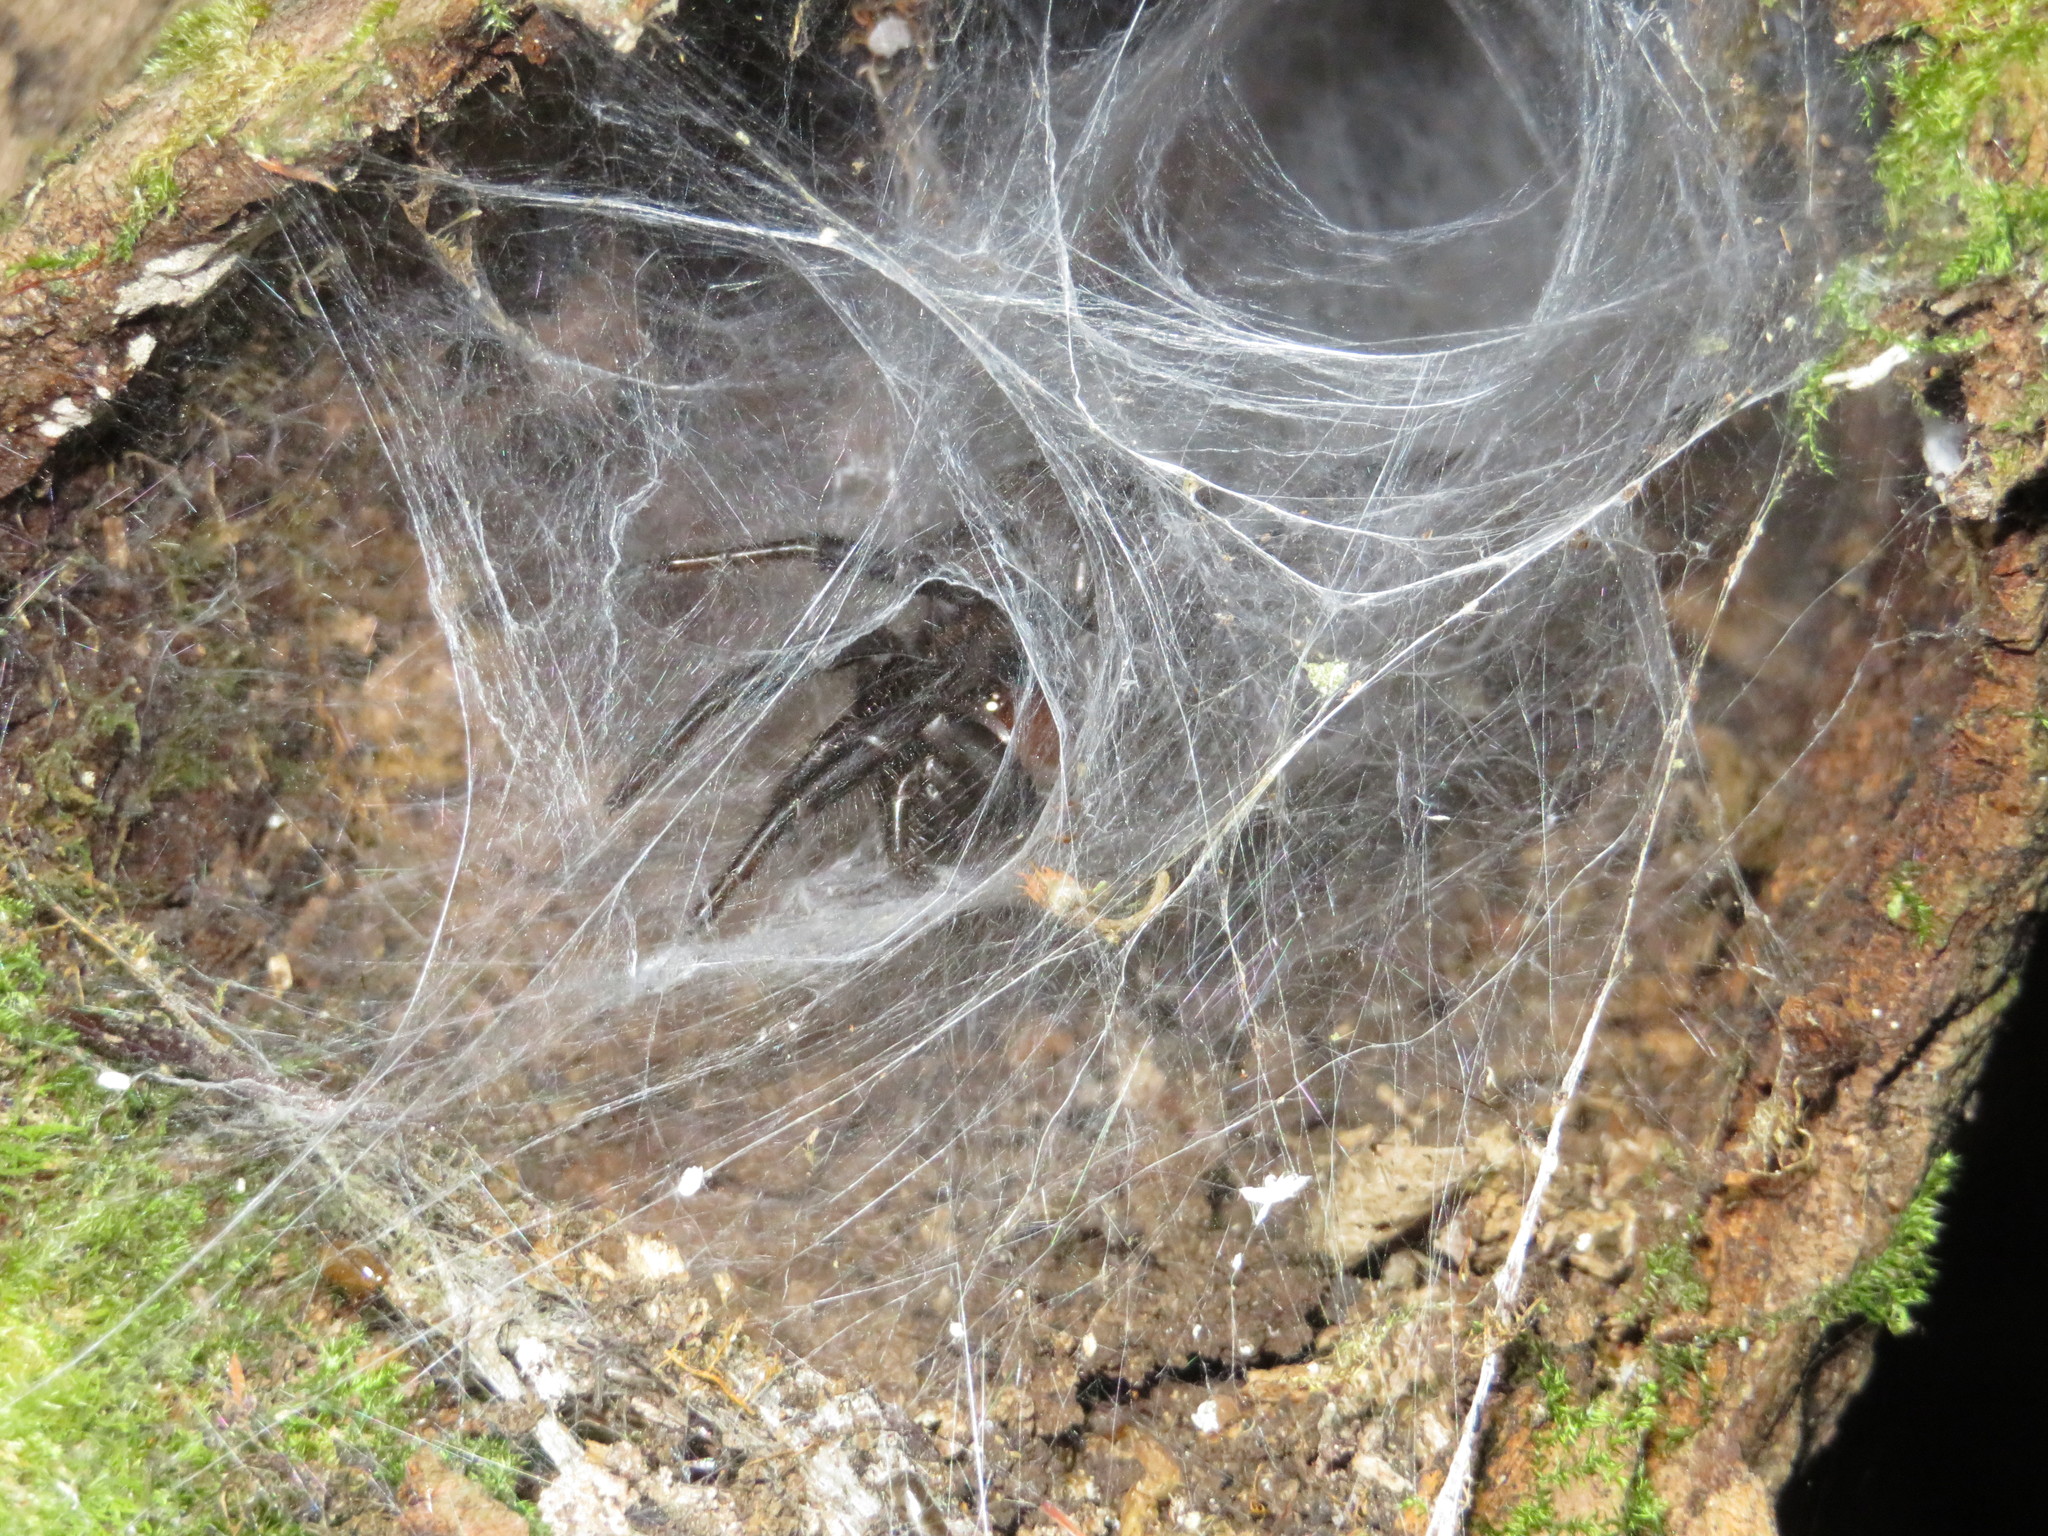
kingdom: Animalia
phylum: Arthropoda
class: Arachnida
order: Araneae
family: Porrhothelidae
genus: Porrhothele
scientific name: Porrhothele antipodiana
